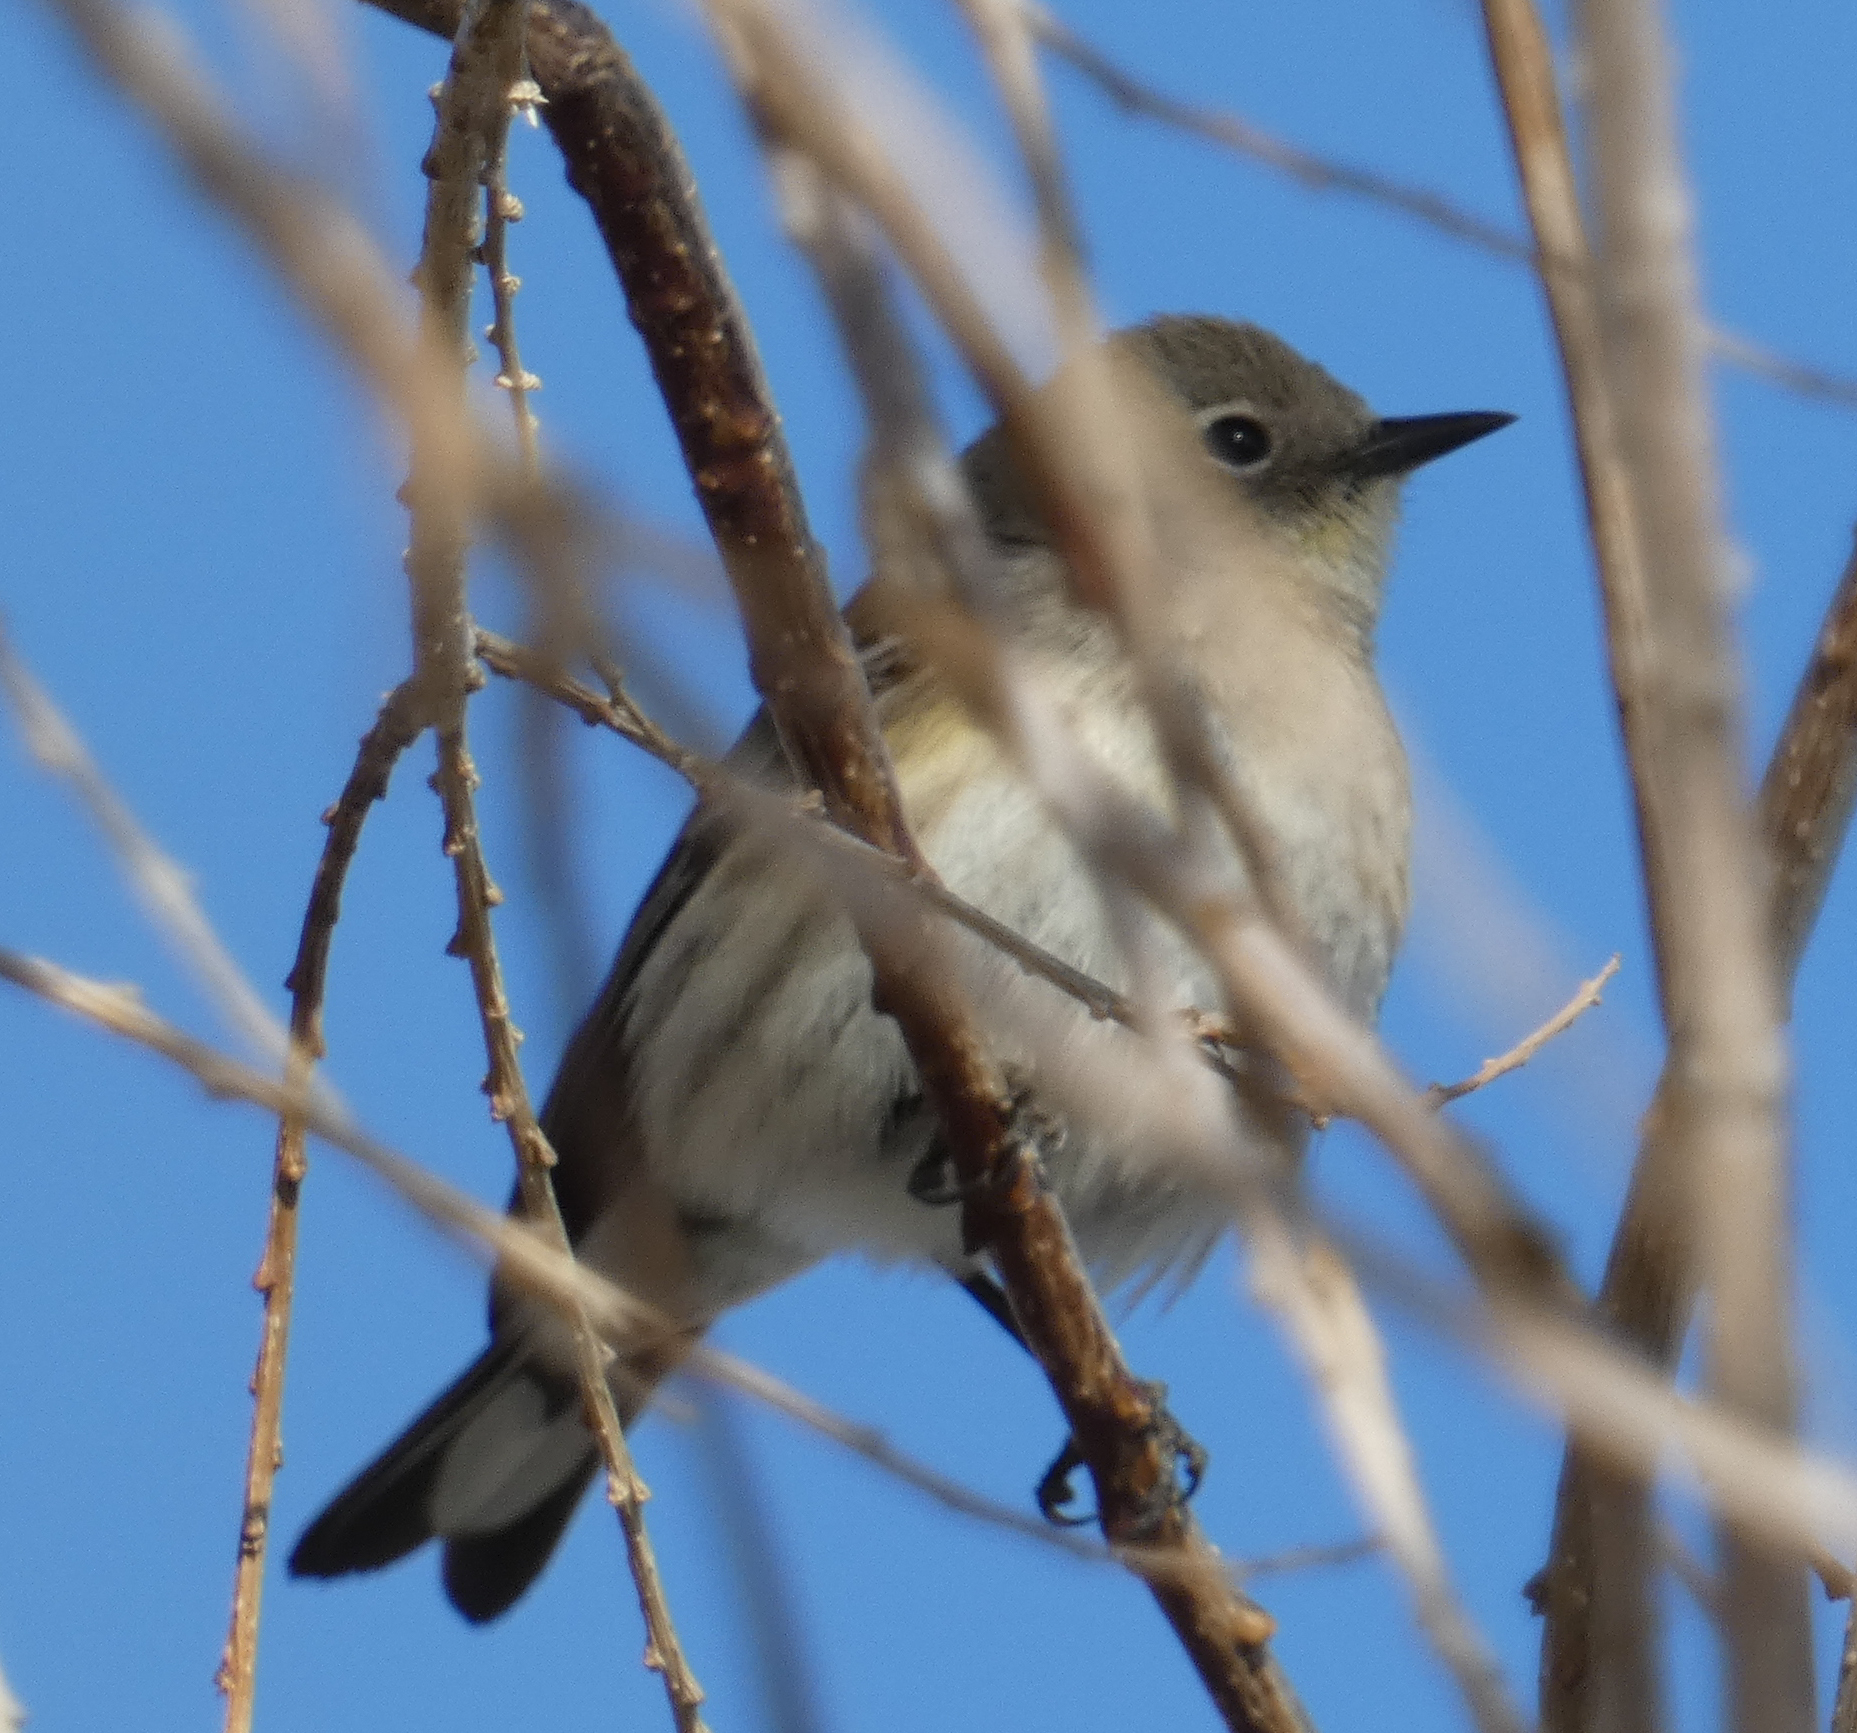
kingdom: Animalia
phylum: Chordata
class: Aves
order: Passeriformes
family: Parulidae
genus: Setophaga
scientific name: Setophaga coronata
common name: Myrtle warbler
